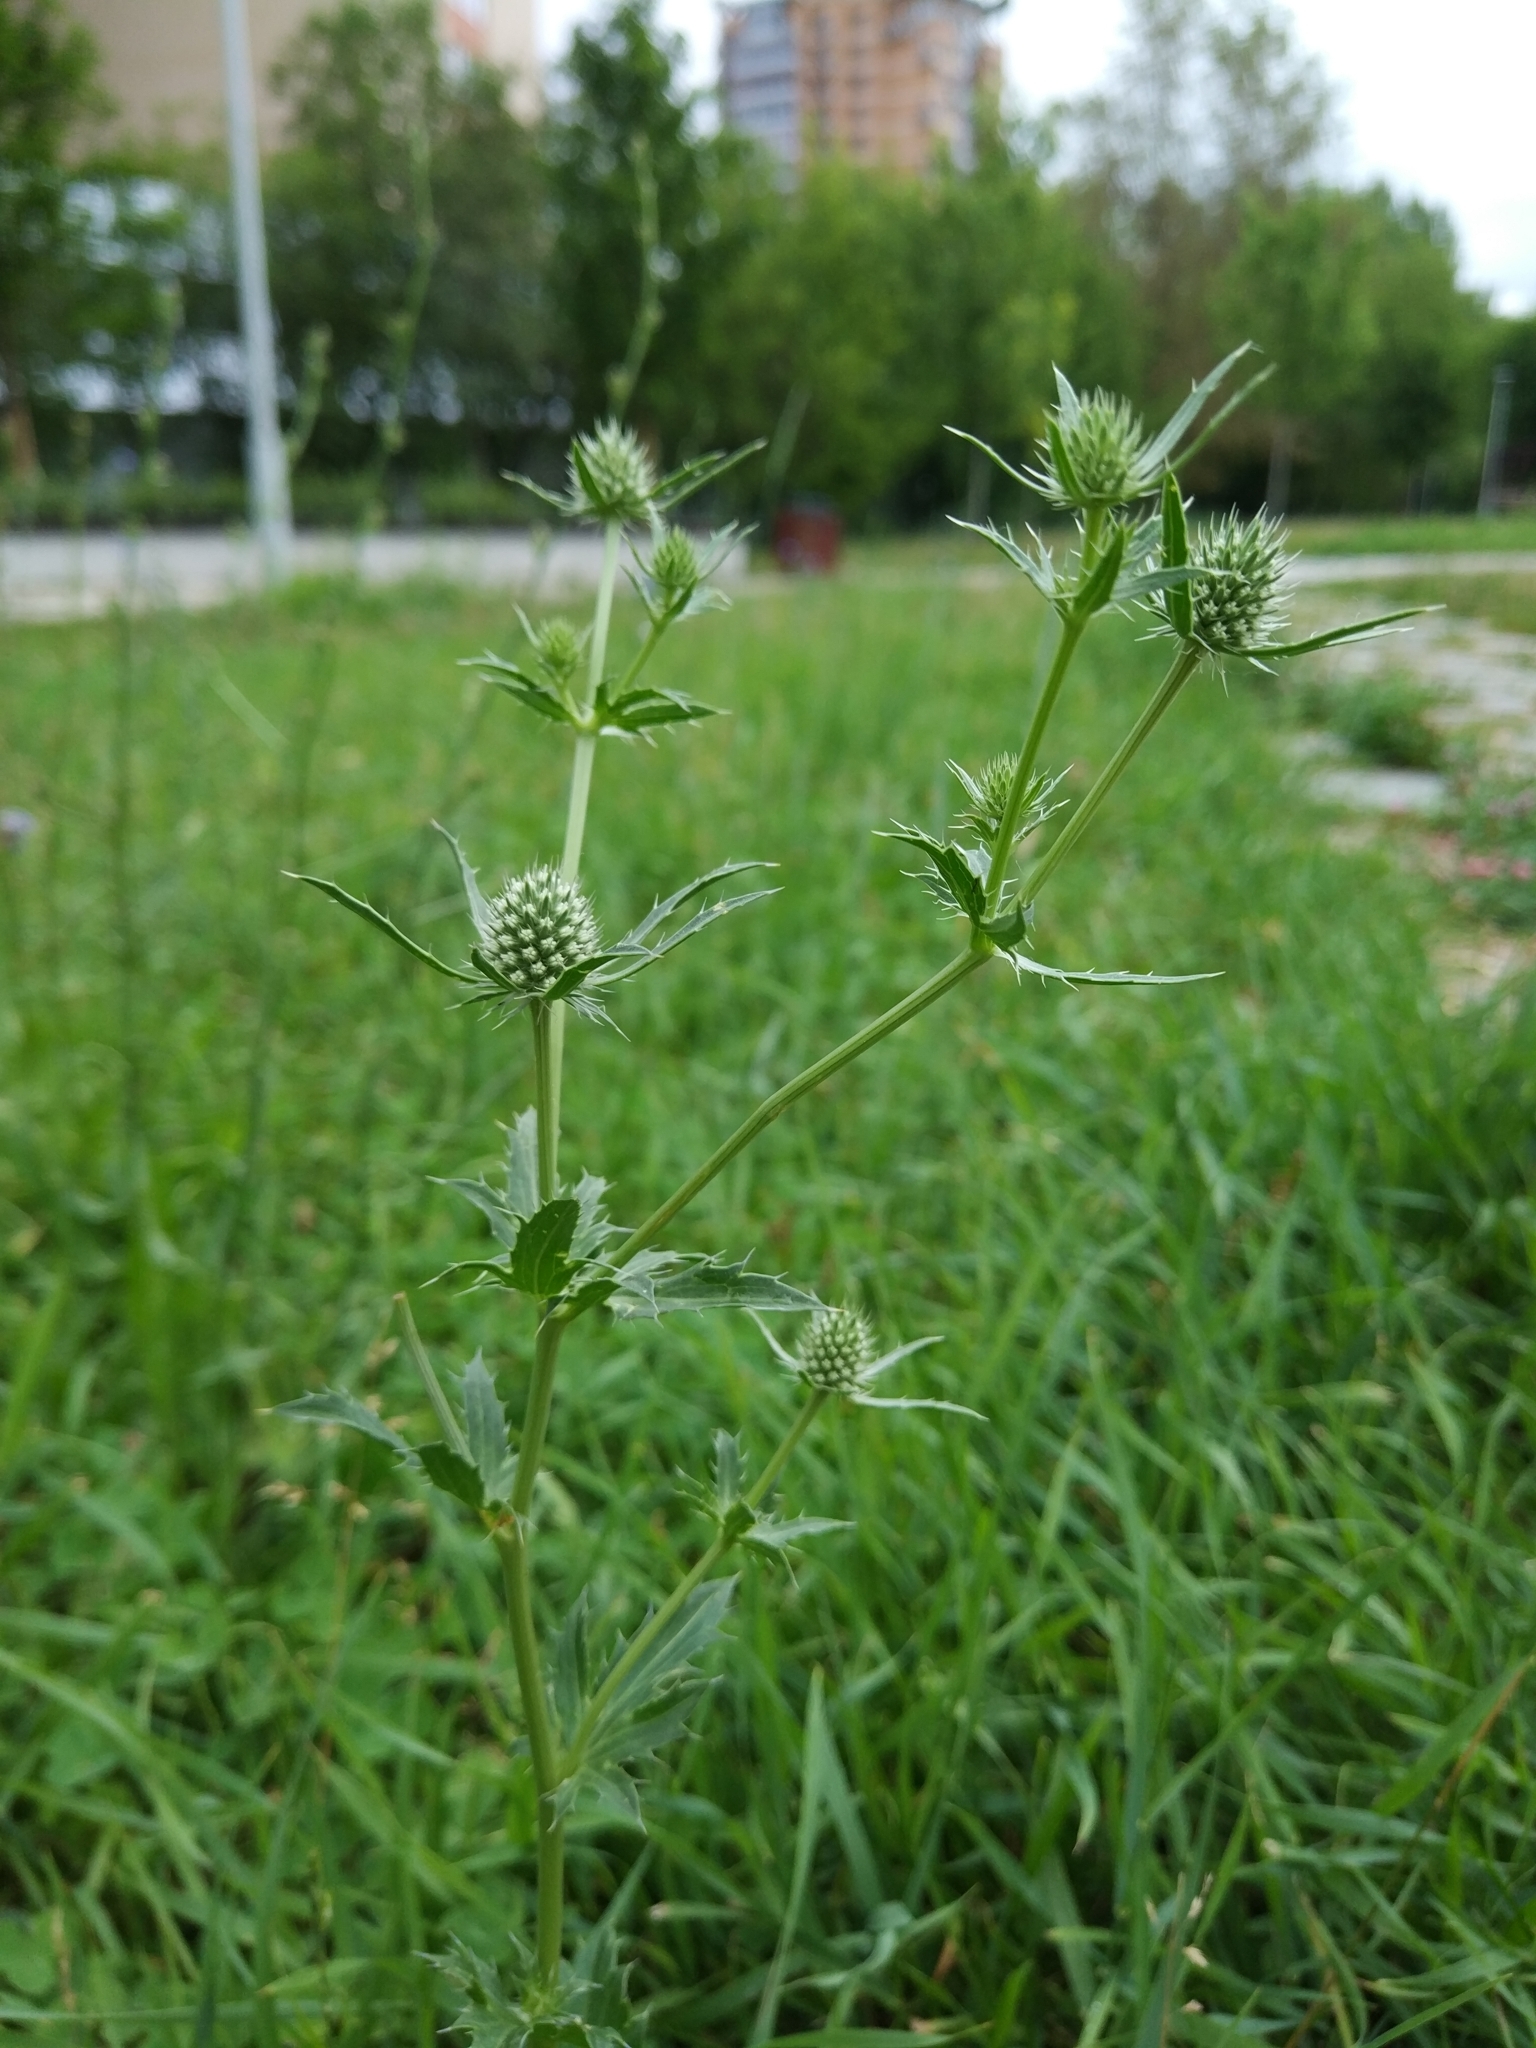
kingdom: Plantae
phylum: Tracheophyta
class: Magnoliopsida
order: Apiales
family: Apiaceae
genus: Eryngium
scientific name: Eryngium planum
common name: Blue eryngo
